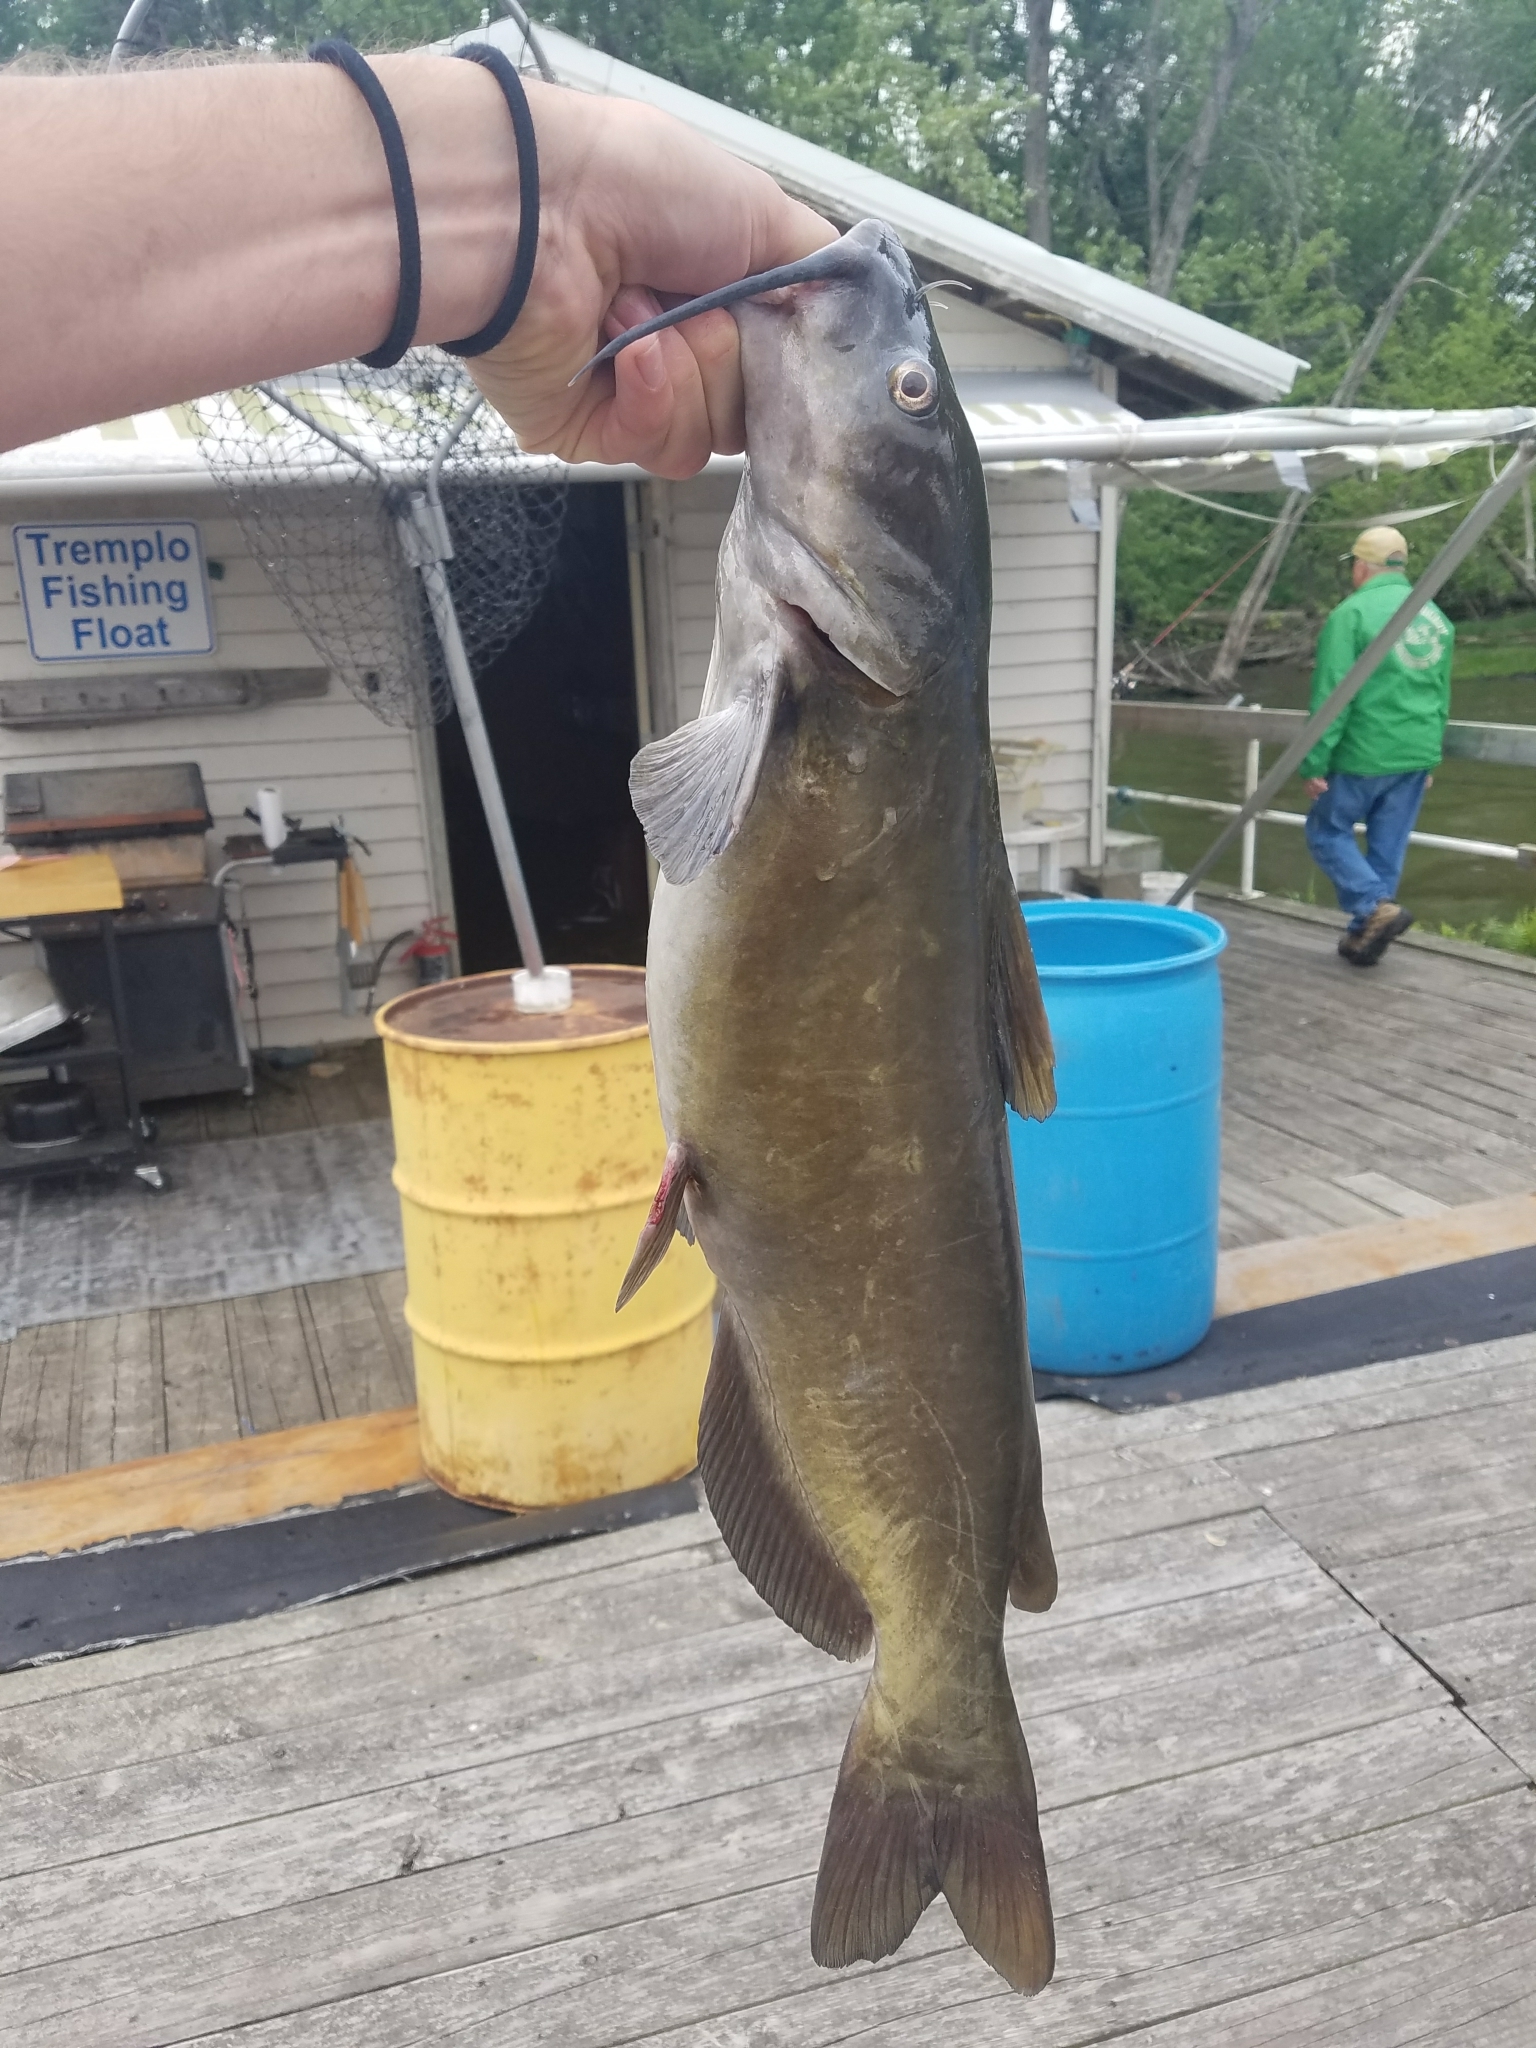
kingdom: Animalia
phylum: Chordata
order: Siluriformes
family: Ictaluridae
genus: Ictalurus
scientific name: Ictalurus punctatus
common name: Channel catfish
